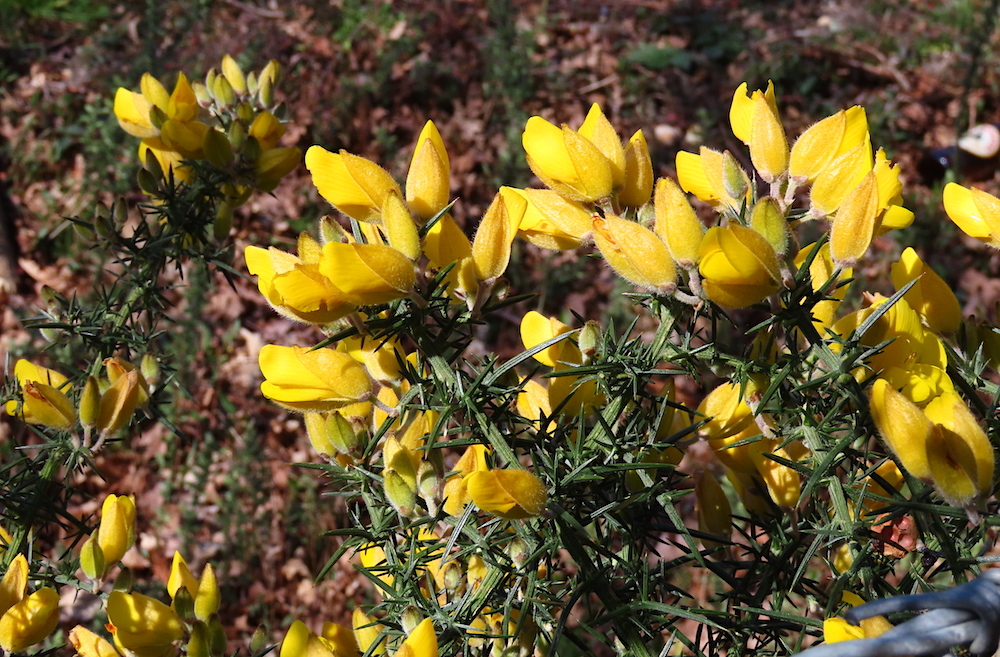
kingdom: Plantae
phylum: Tracheophyta
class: Magnoliopsida
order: Fabales
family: Fabaceae
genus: Ulex
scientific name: Ulex europaeus
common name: Common gorse
